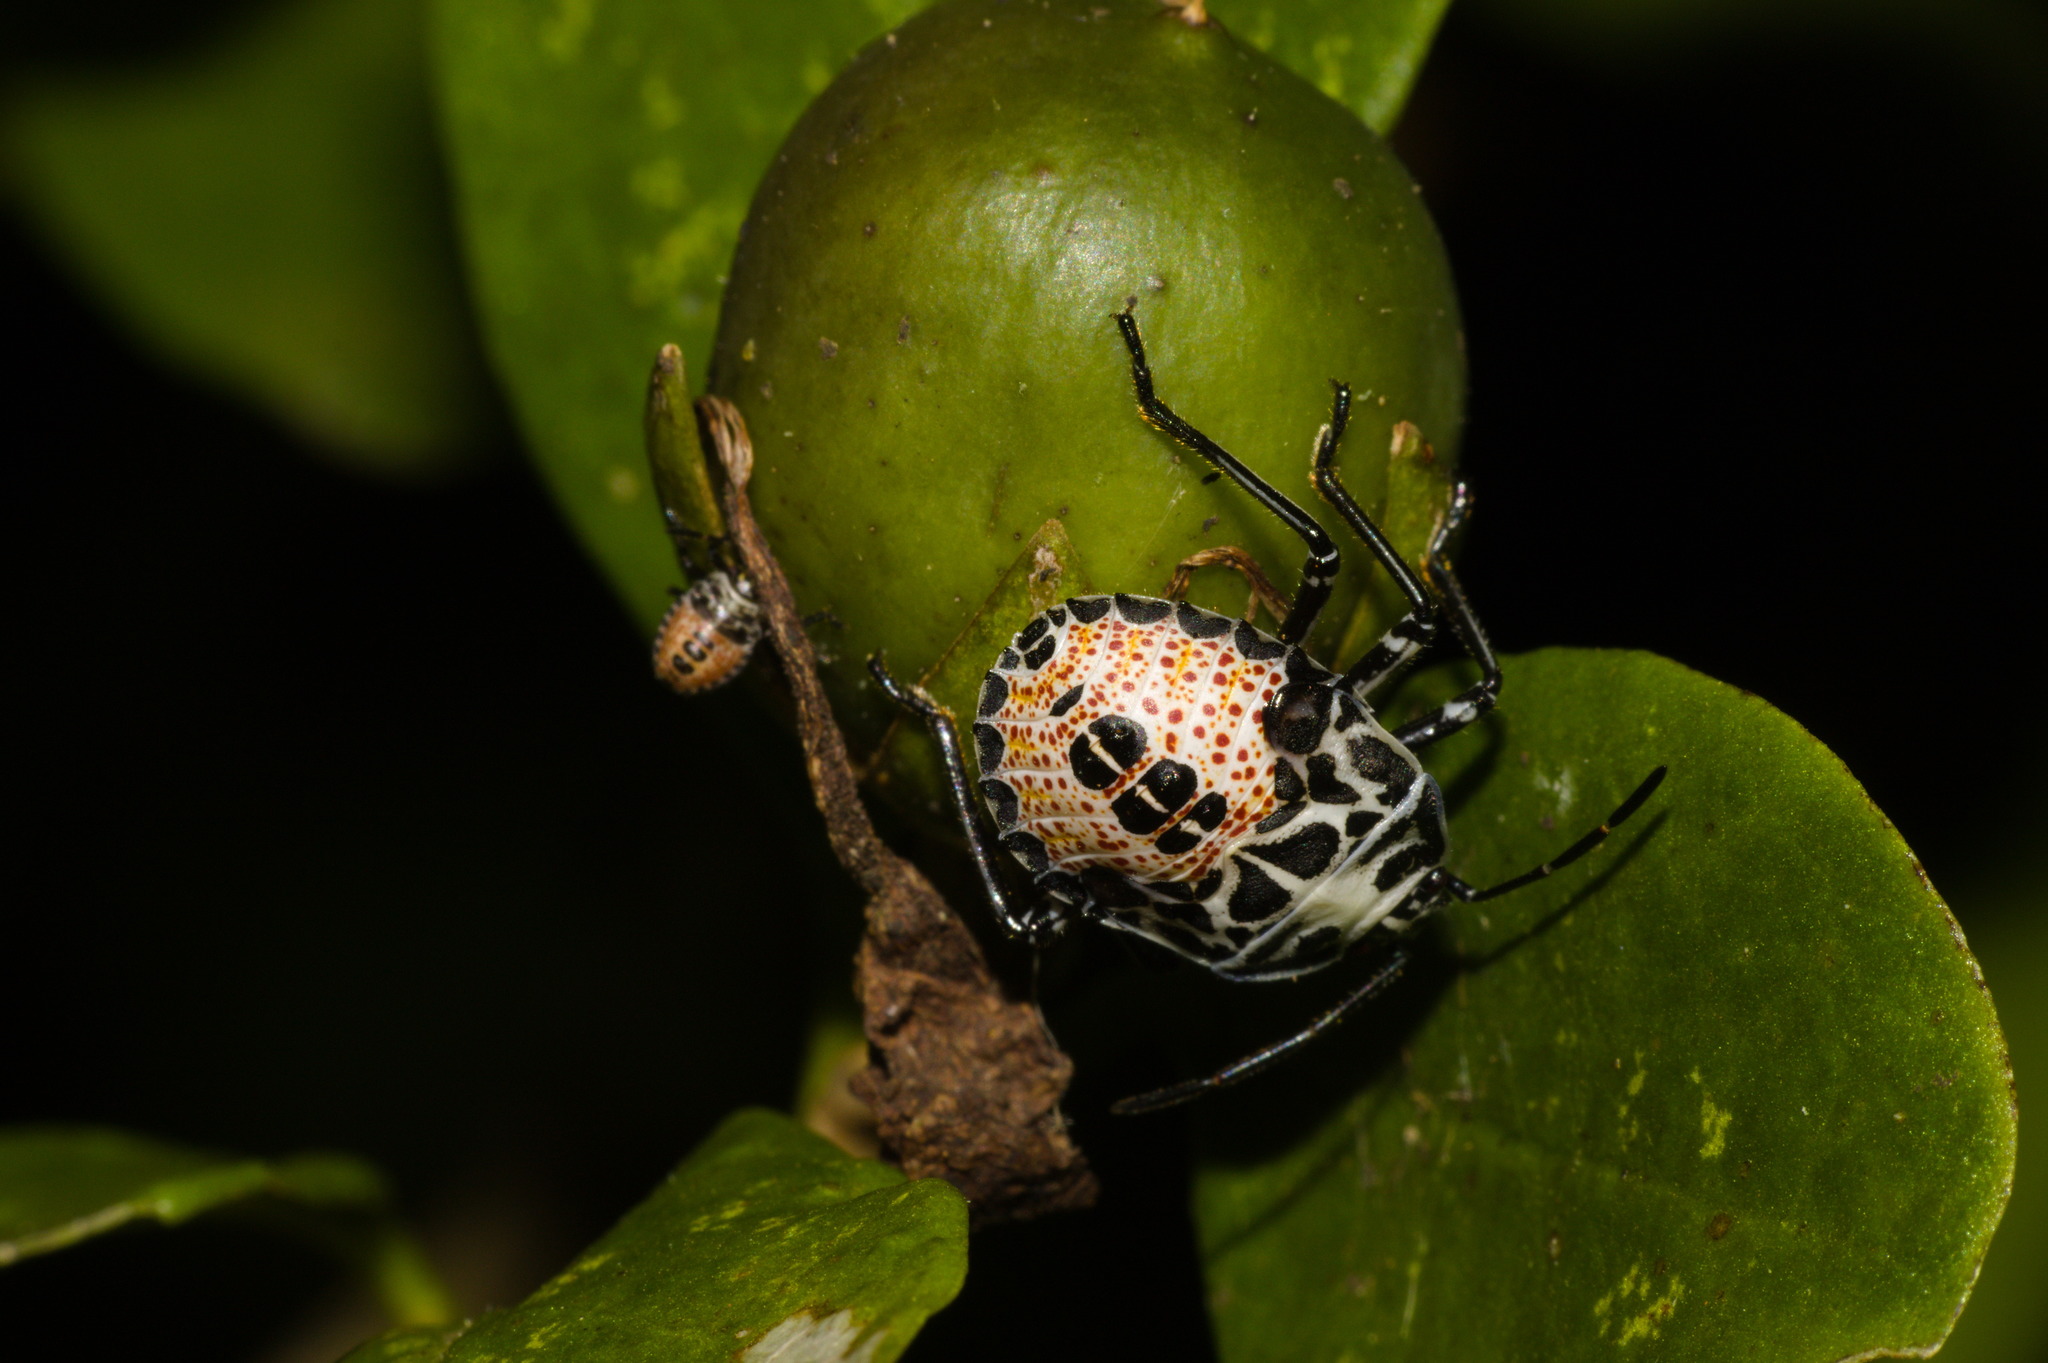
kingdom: Animalia
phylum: Arthropoda
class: Insecta
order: Hemiptera
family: Pentatomidae
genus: Runibia
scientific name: Runibia perspicua
